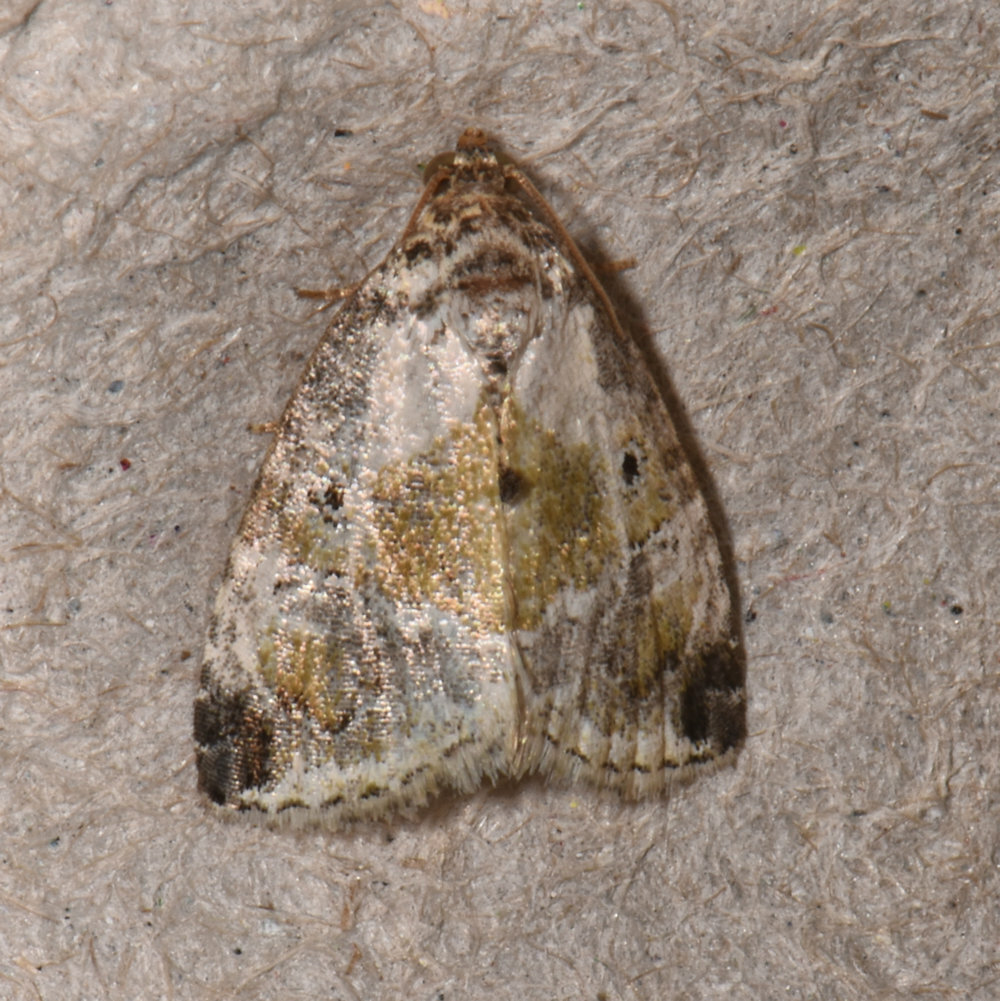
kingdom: Animalia
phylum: Arthropoda
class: Insecta
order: Lepidoptera
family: Noctuidae
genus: Maliattha
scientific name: Maliattha synochitis
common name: Black-dotted glyph
